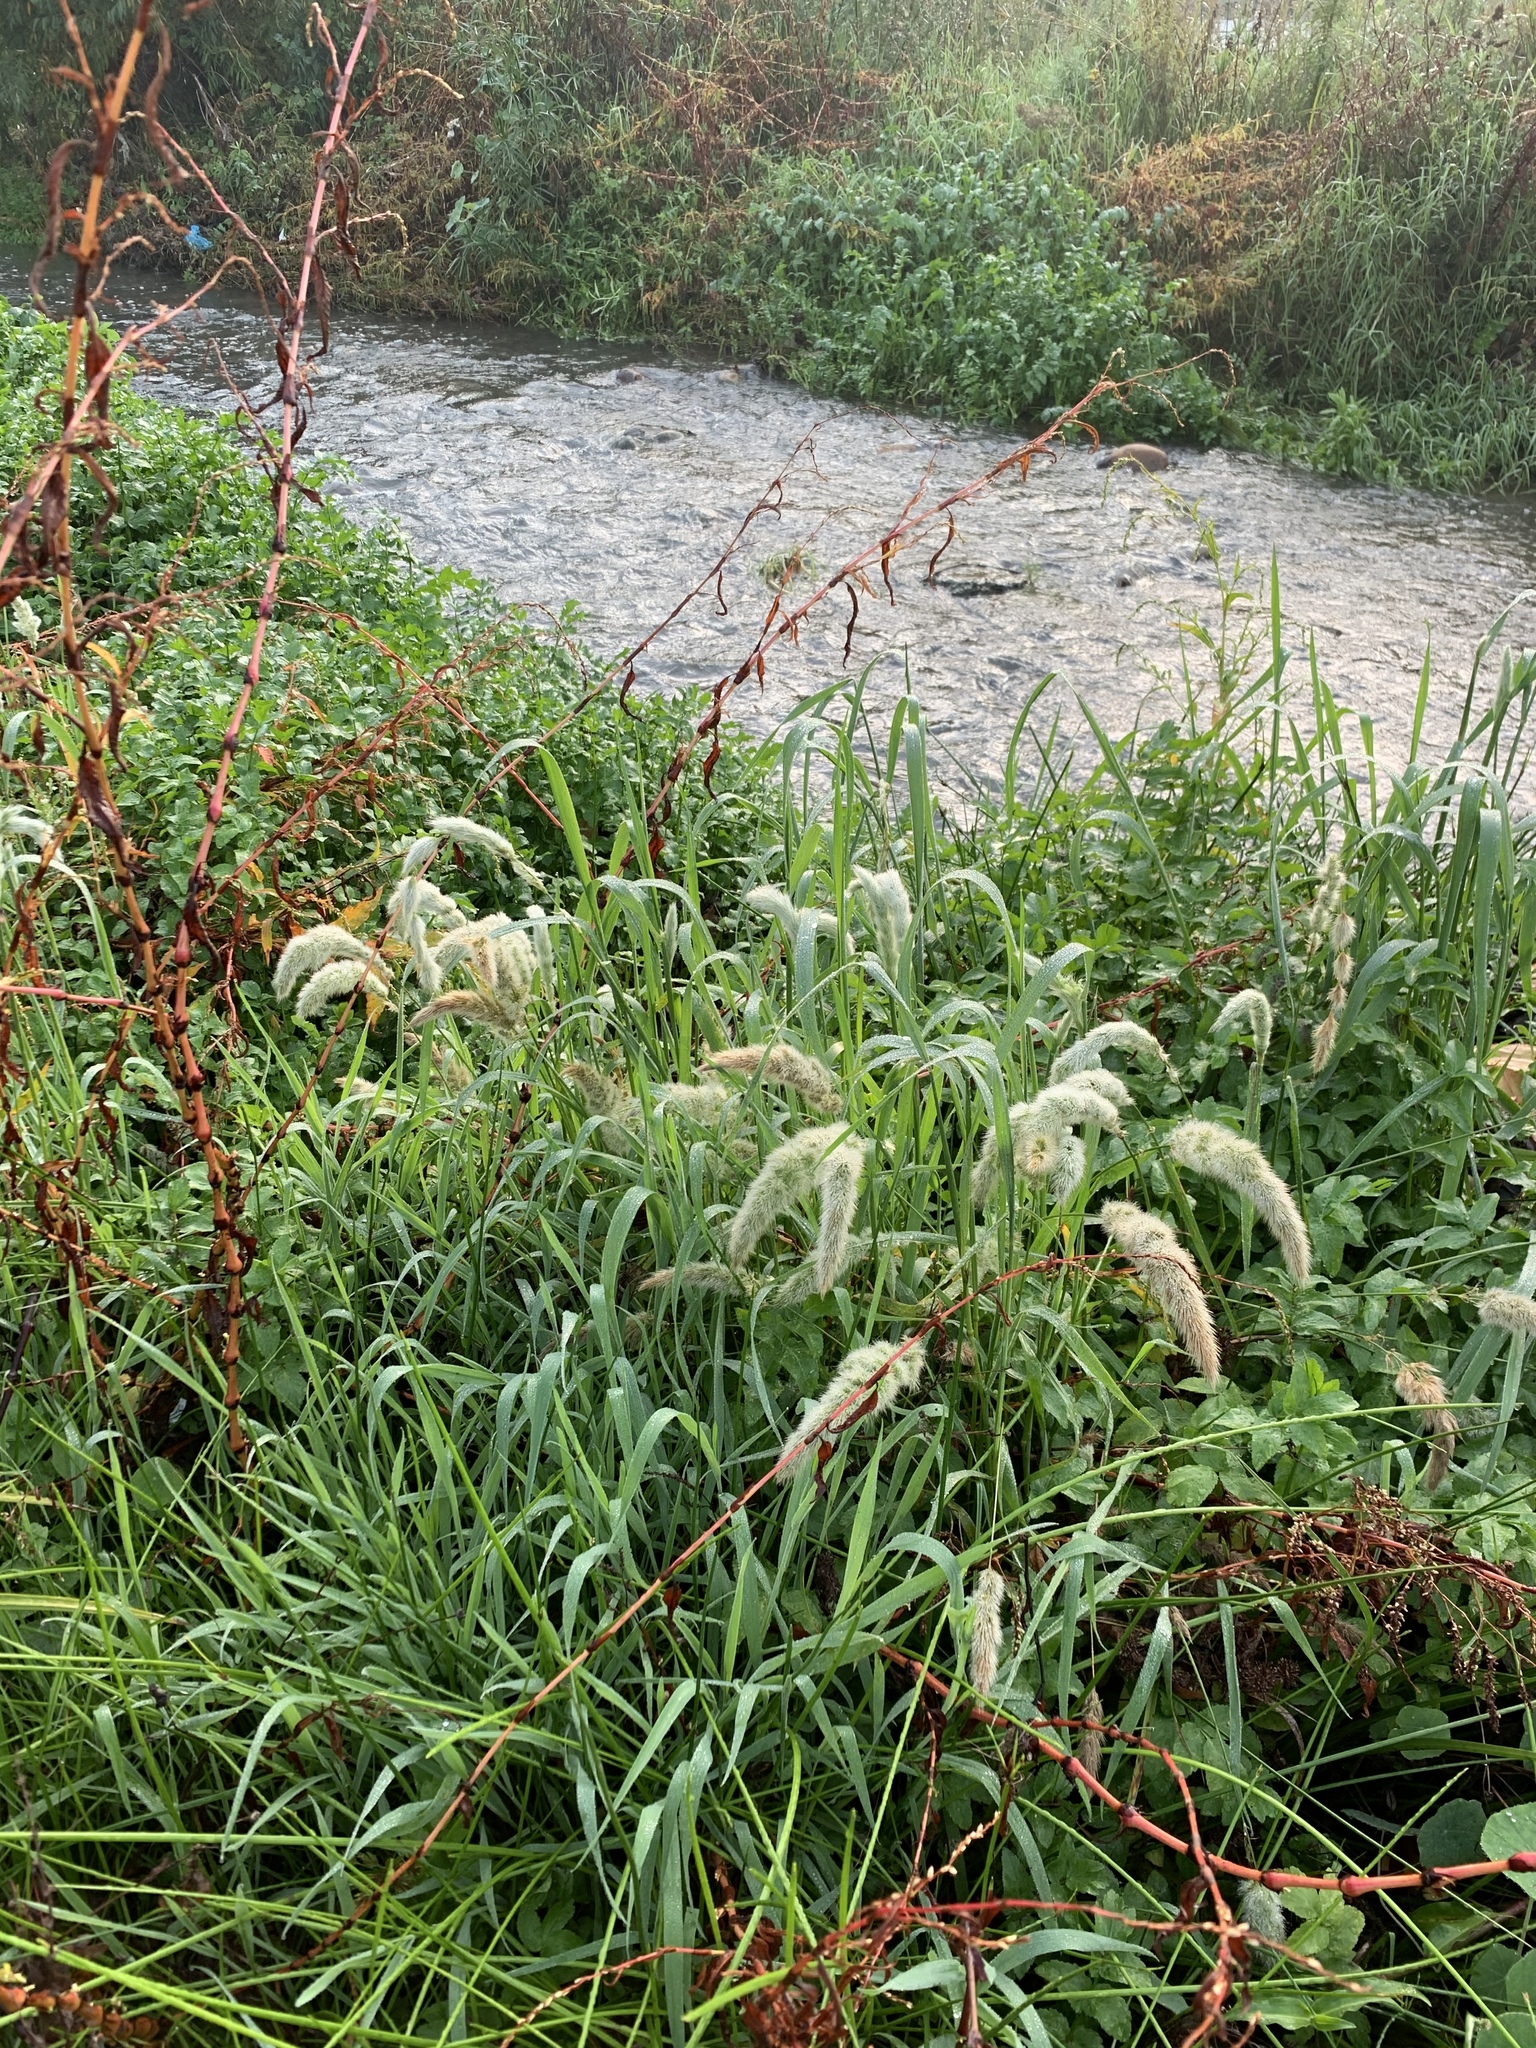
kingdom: Plantae
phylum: Tracheophyta
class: Liliopsida
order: Poales
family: Poaceae
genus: Polypogon
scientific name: Polypogon monspeliensis
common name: Annual rabbitsfoot grass
